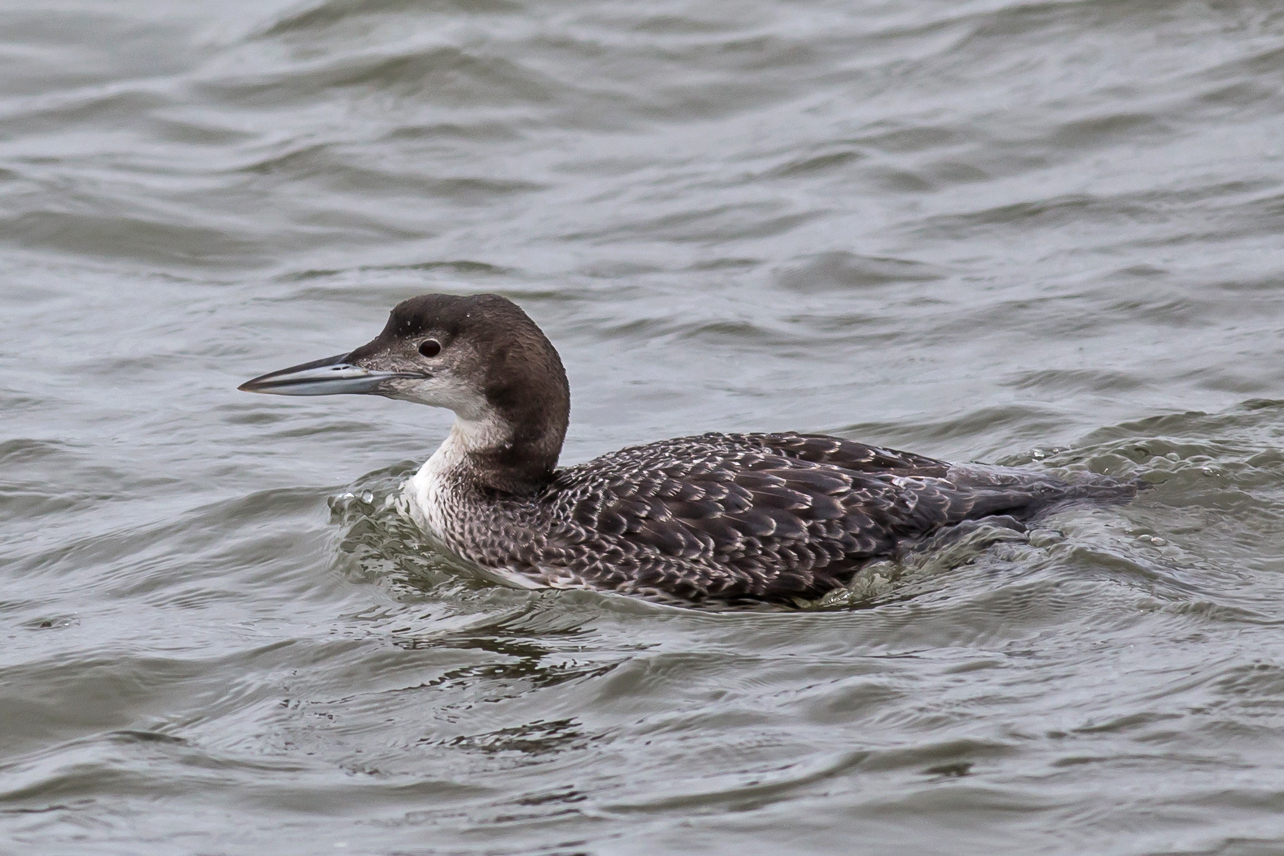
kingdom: Animalia
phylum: Chordata
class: Aves
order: Gaviiformes
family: Gaviidae
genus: Gavia
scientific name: Gavia immer
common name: Common loon
